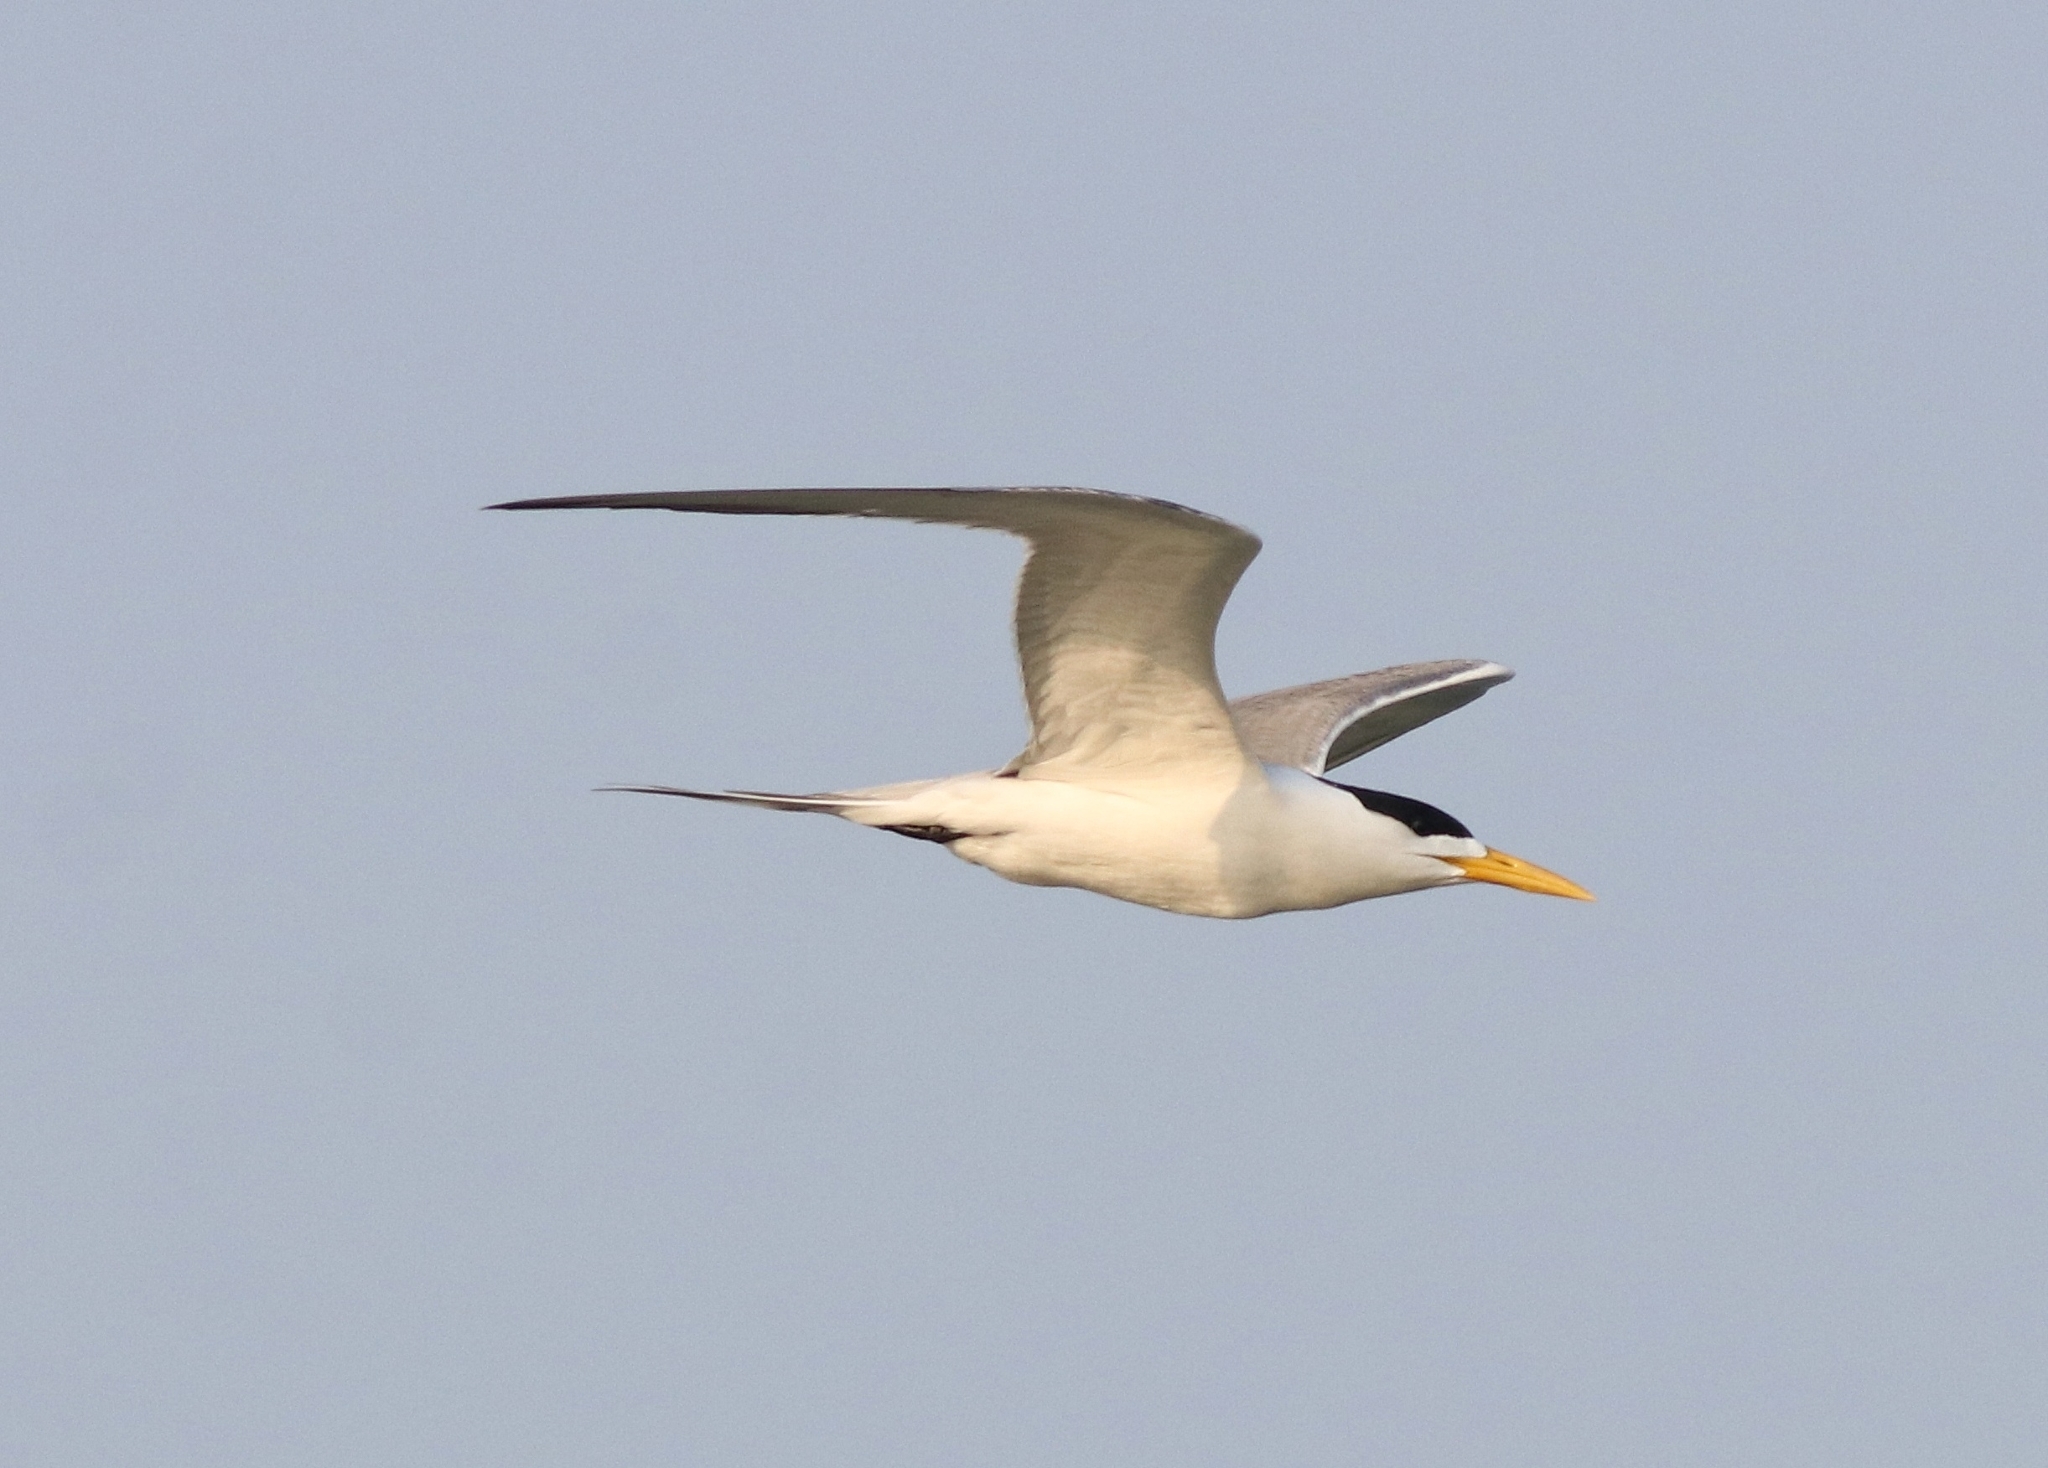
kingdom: Animalia
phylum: Chordata
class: Aves
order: Charadriiformes
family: Laridae
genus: Thalasseus
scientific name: Thalasseus bergii
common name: Greater crested tern
